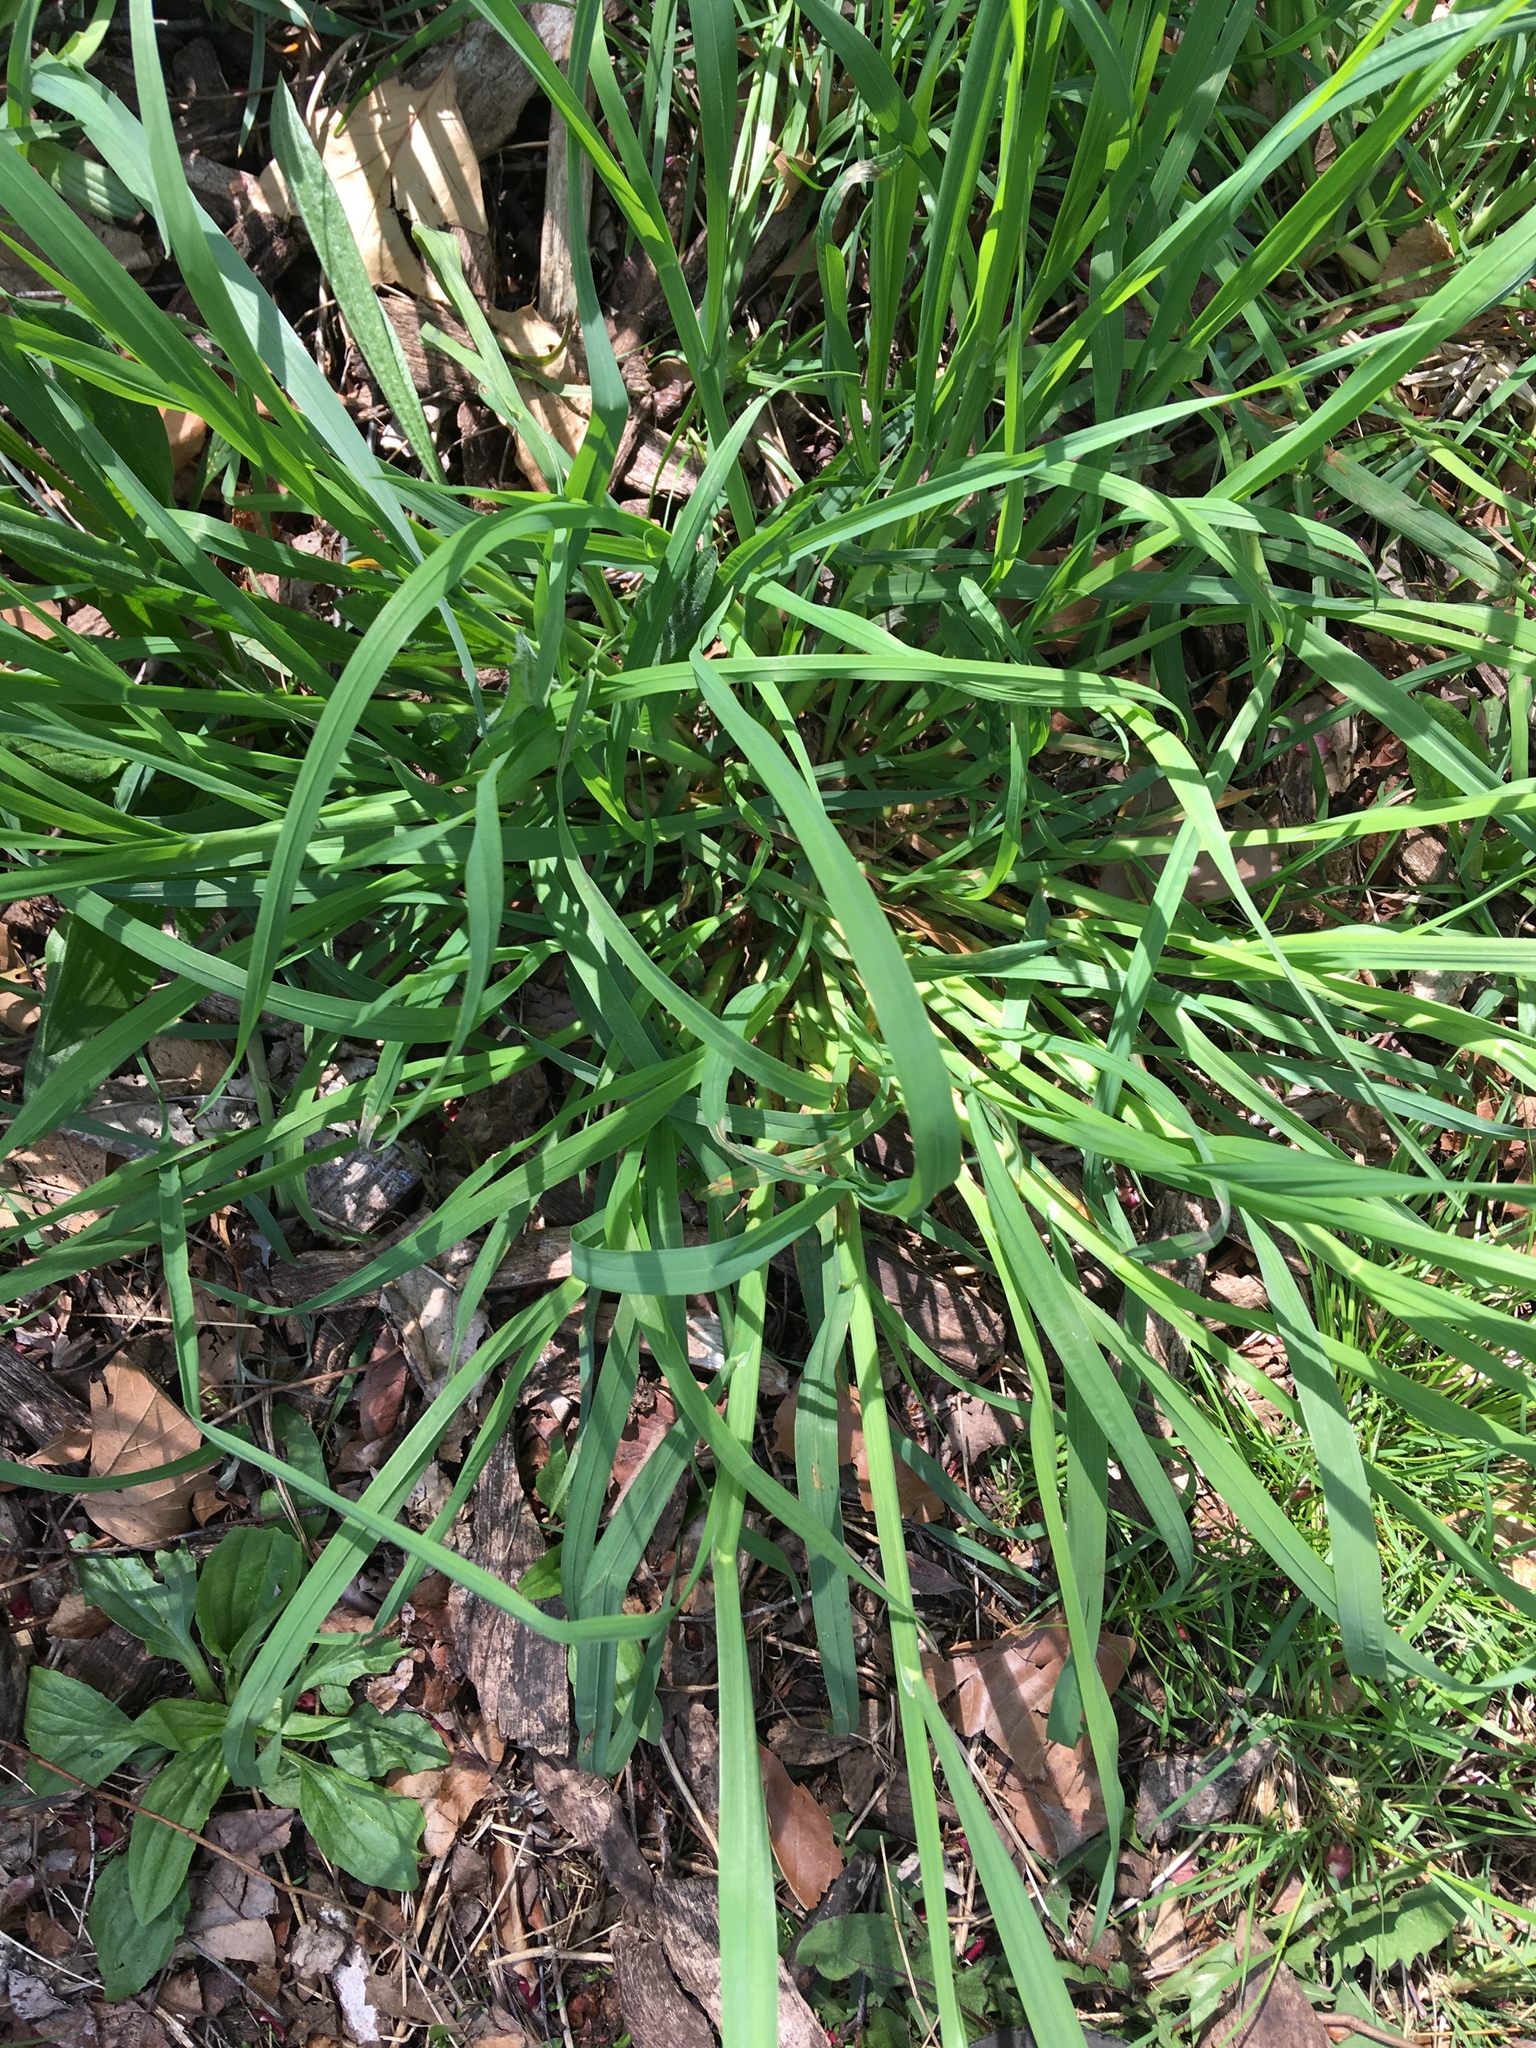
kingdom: Plantae
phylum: Tracheophyta
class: Liliopsida
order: Poales
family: Poaceae
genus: Dactylis
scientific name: Dactylis glomerata
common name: Orchardgrass
